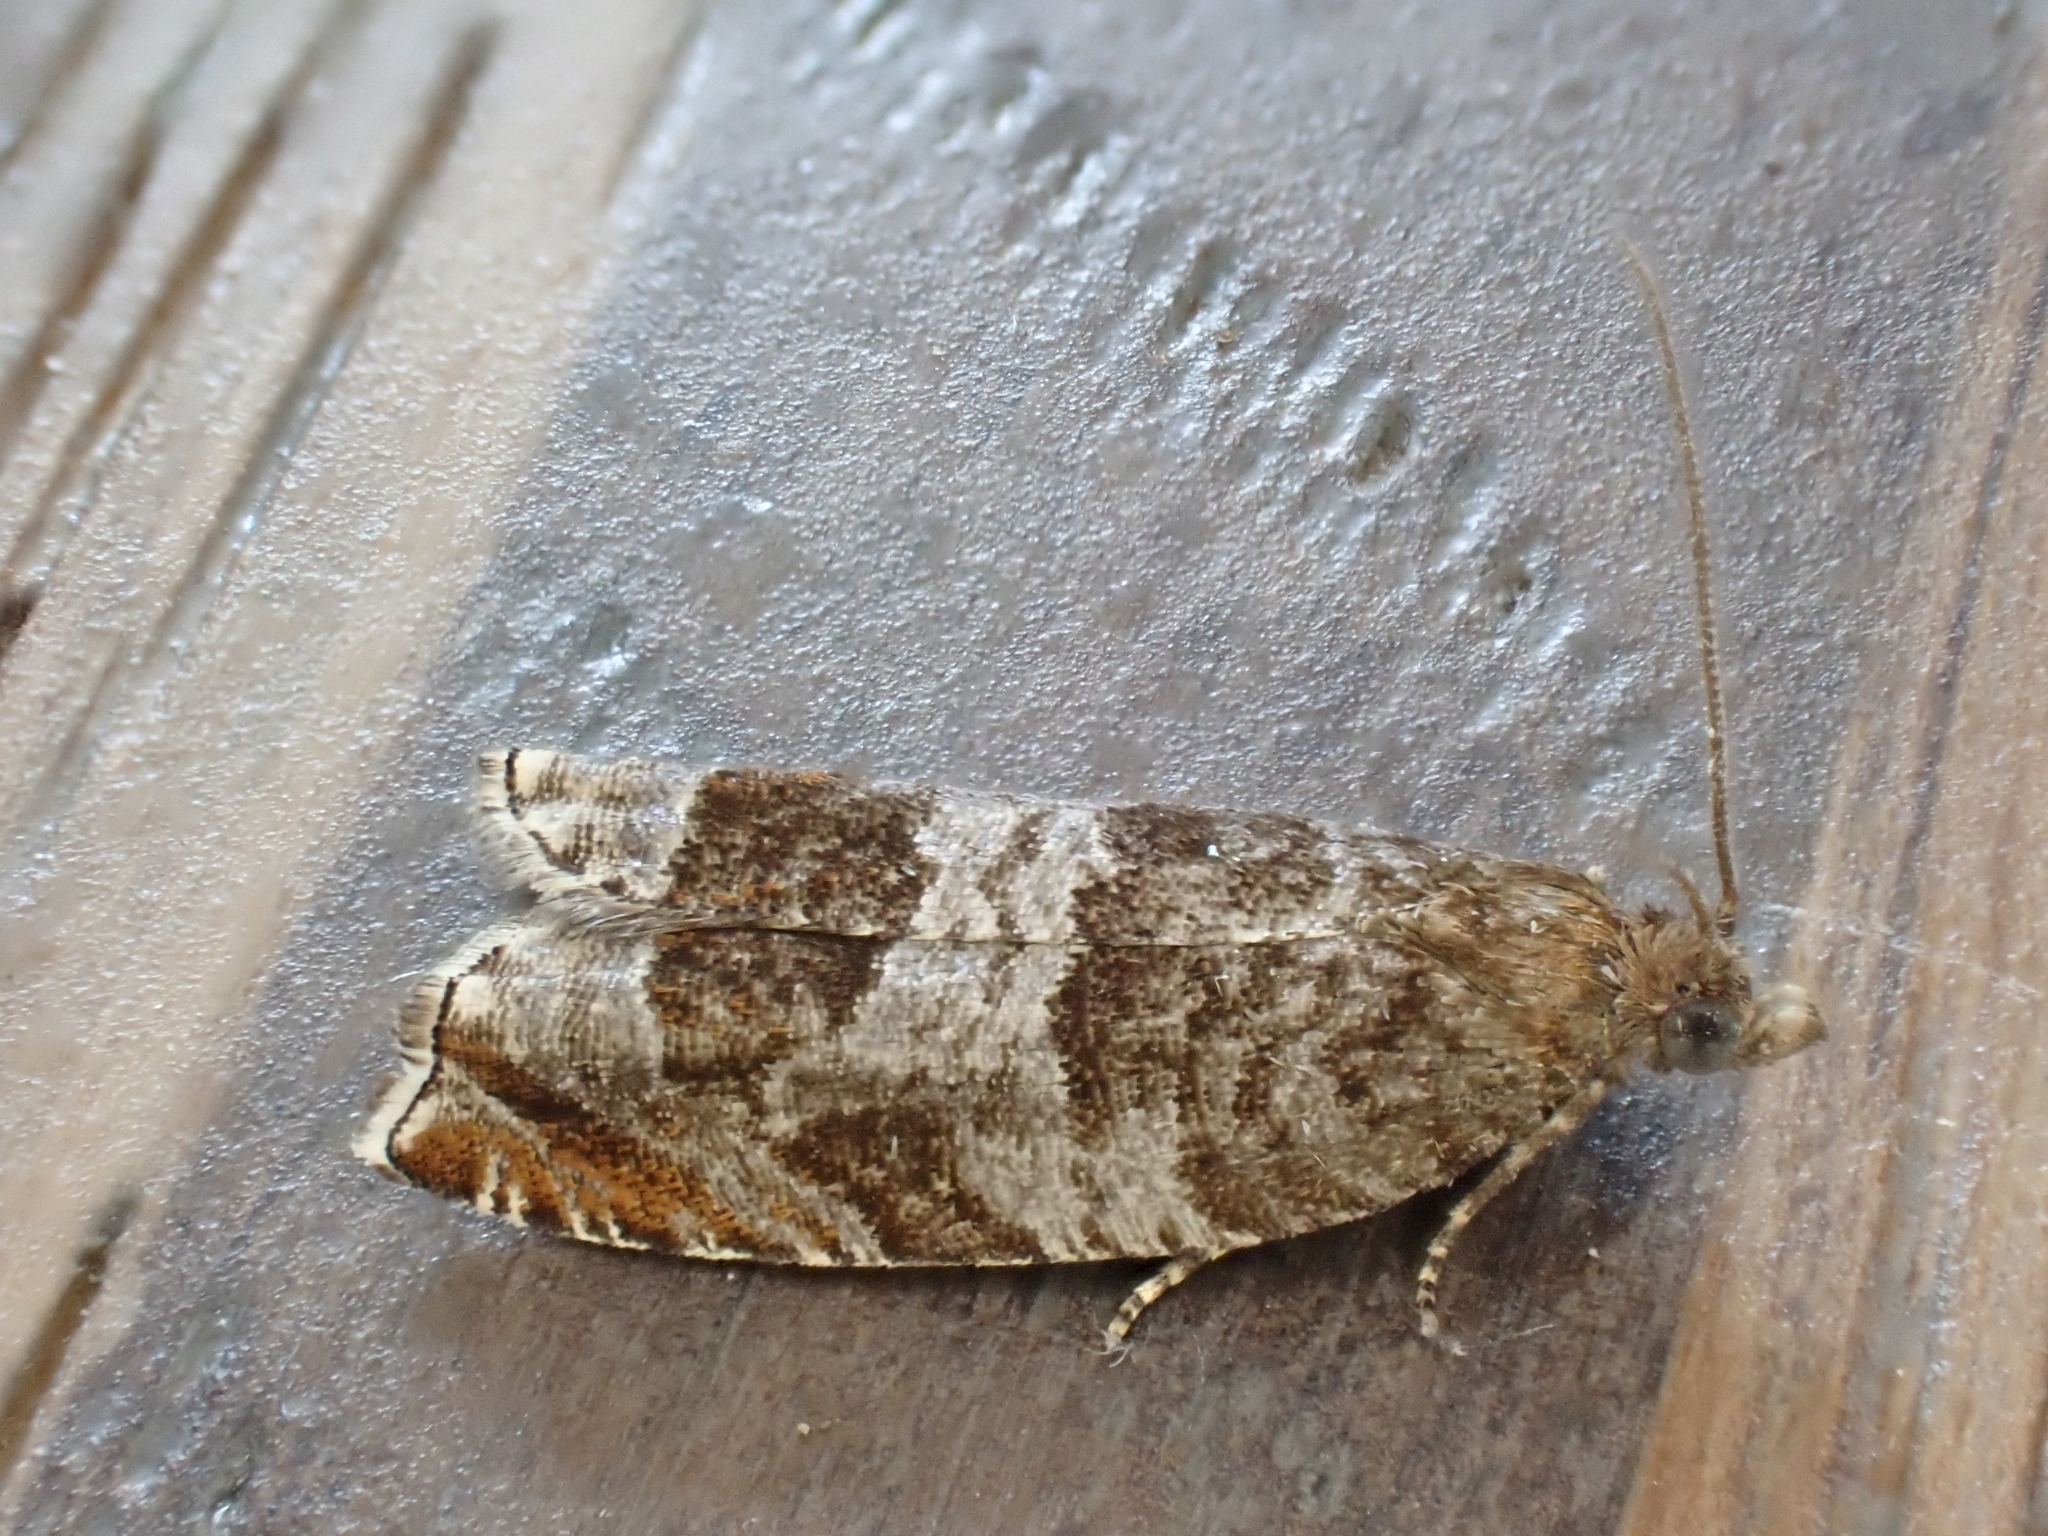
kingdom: Animalia
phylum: Arthropoda
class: Insecta
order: Lepidoptera
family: Tortricidae
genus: Ancylis
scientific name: Ancylis achatana
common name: Triangle-marked roller
